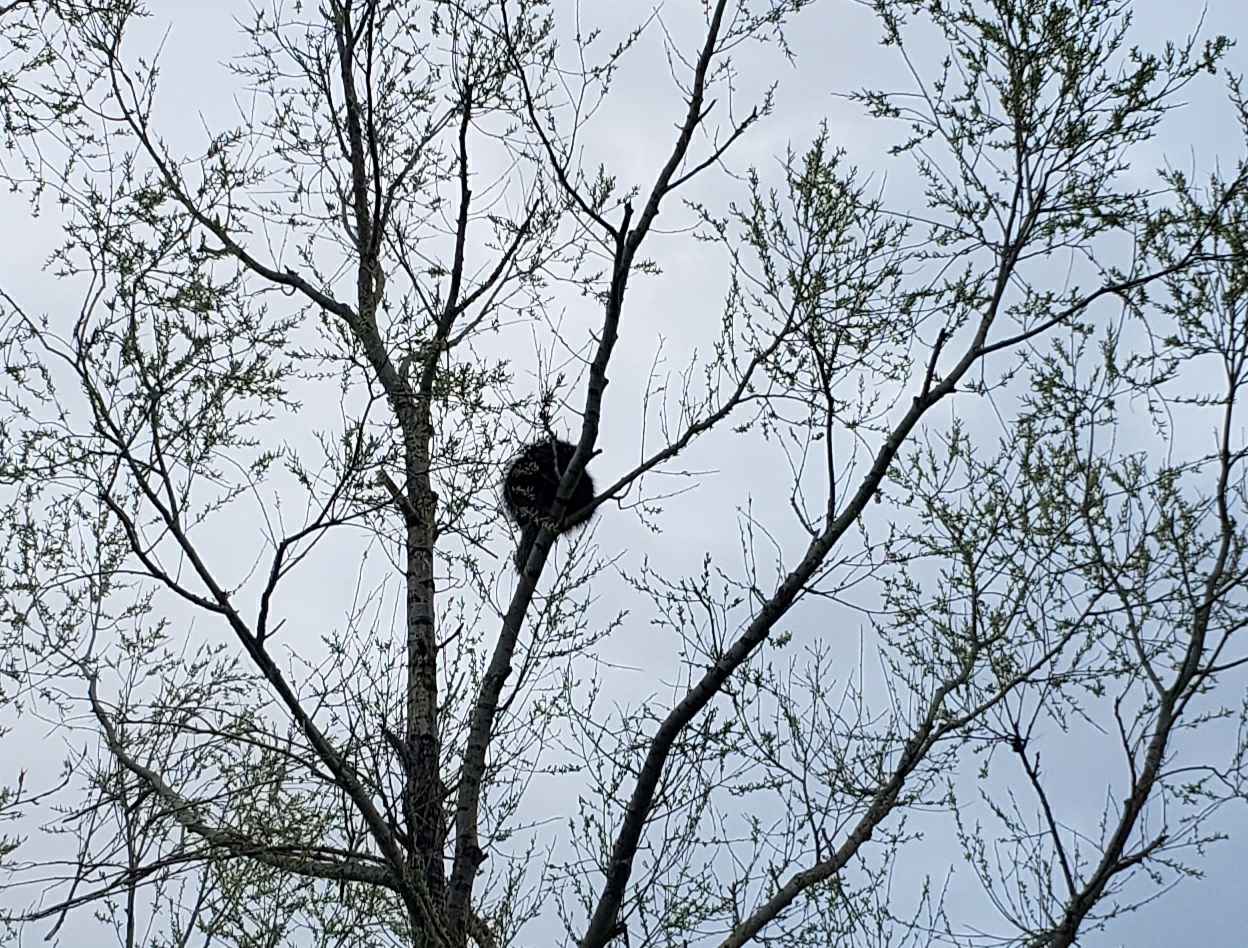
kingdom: Animalia
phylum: Chordata
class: Mammalia
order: Rodentia
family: Erethizontidae
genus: Erethizon
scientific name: Erethizon dorsatus
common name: North american porcupine
